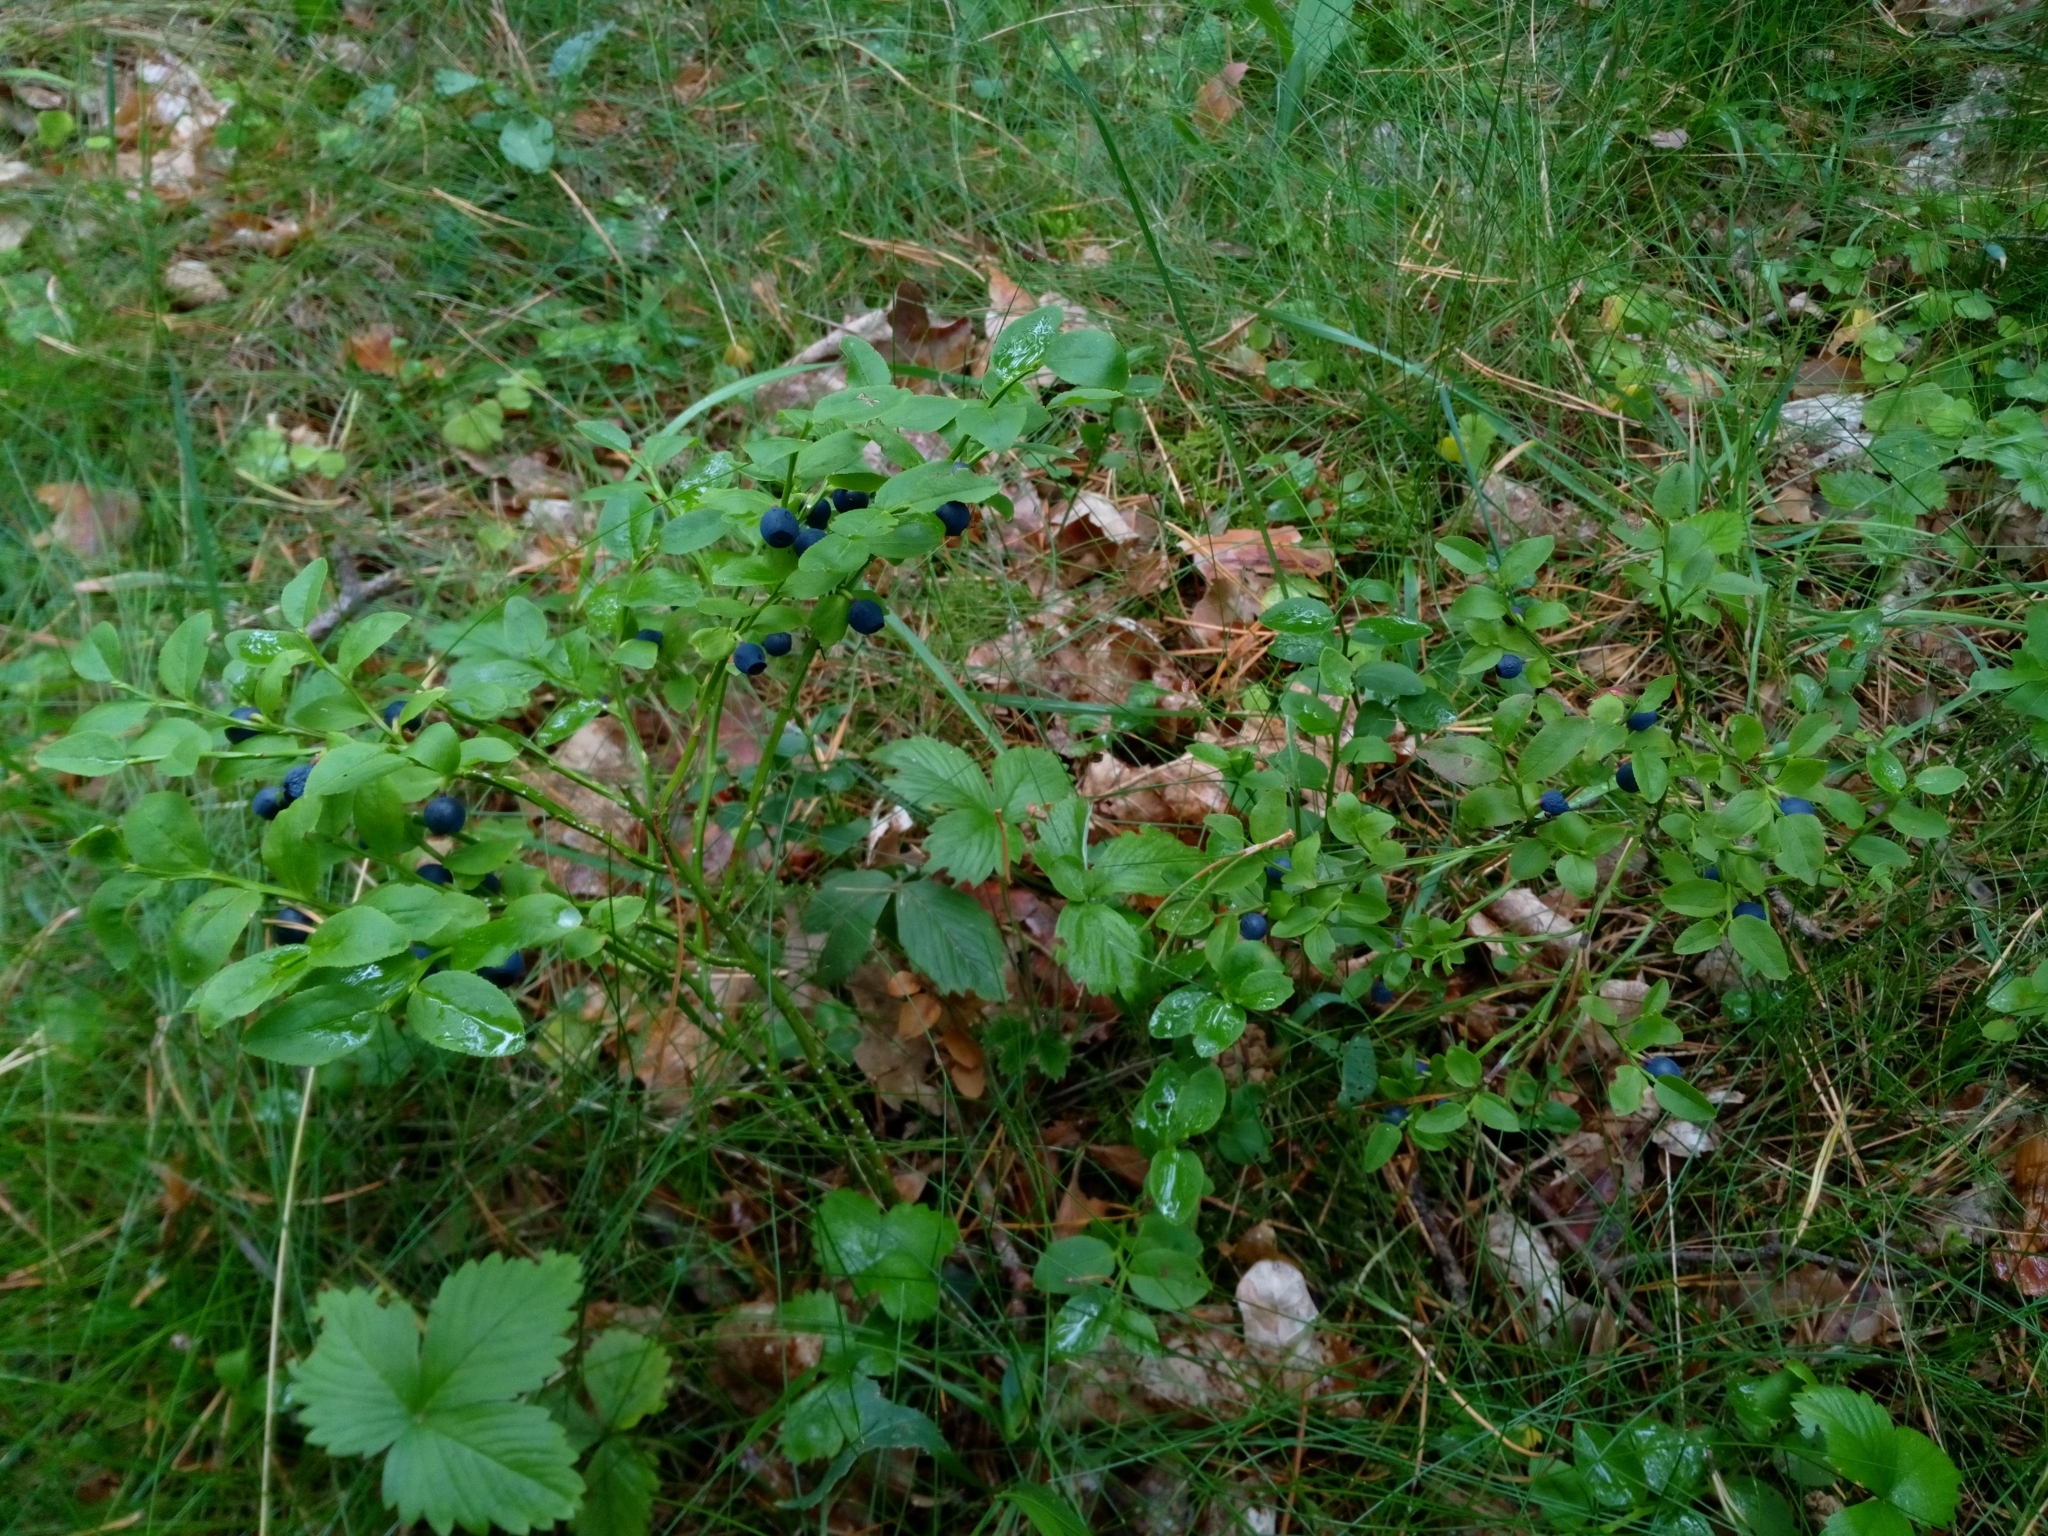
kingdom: Plantae
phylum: Tracheophyta
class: Magnoliopsida
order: Ericales
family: Ericaceae
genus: Vaccinium
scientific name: Vaccinium myrtillus
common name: Bilberry
